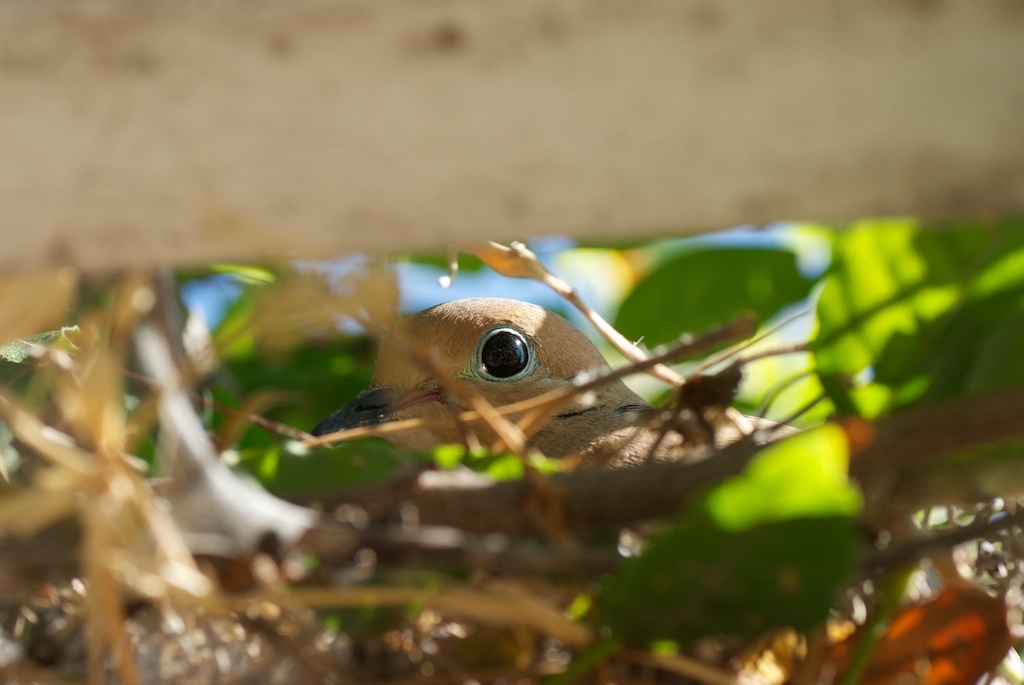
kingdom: Animalia
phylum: Chordata
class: Aves
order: Columbiformes
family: Columbidae
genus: Zenaida
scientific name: Zenaida macroura
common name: Mourning dove
